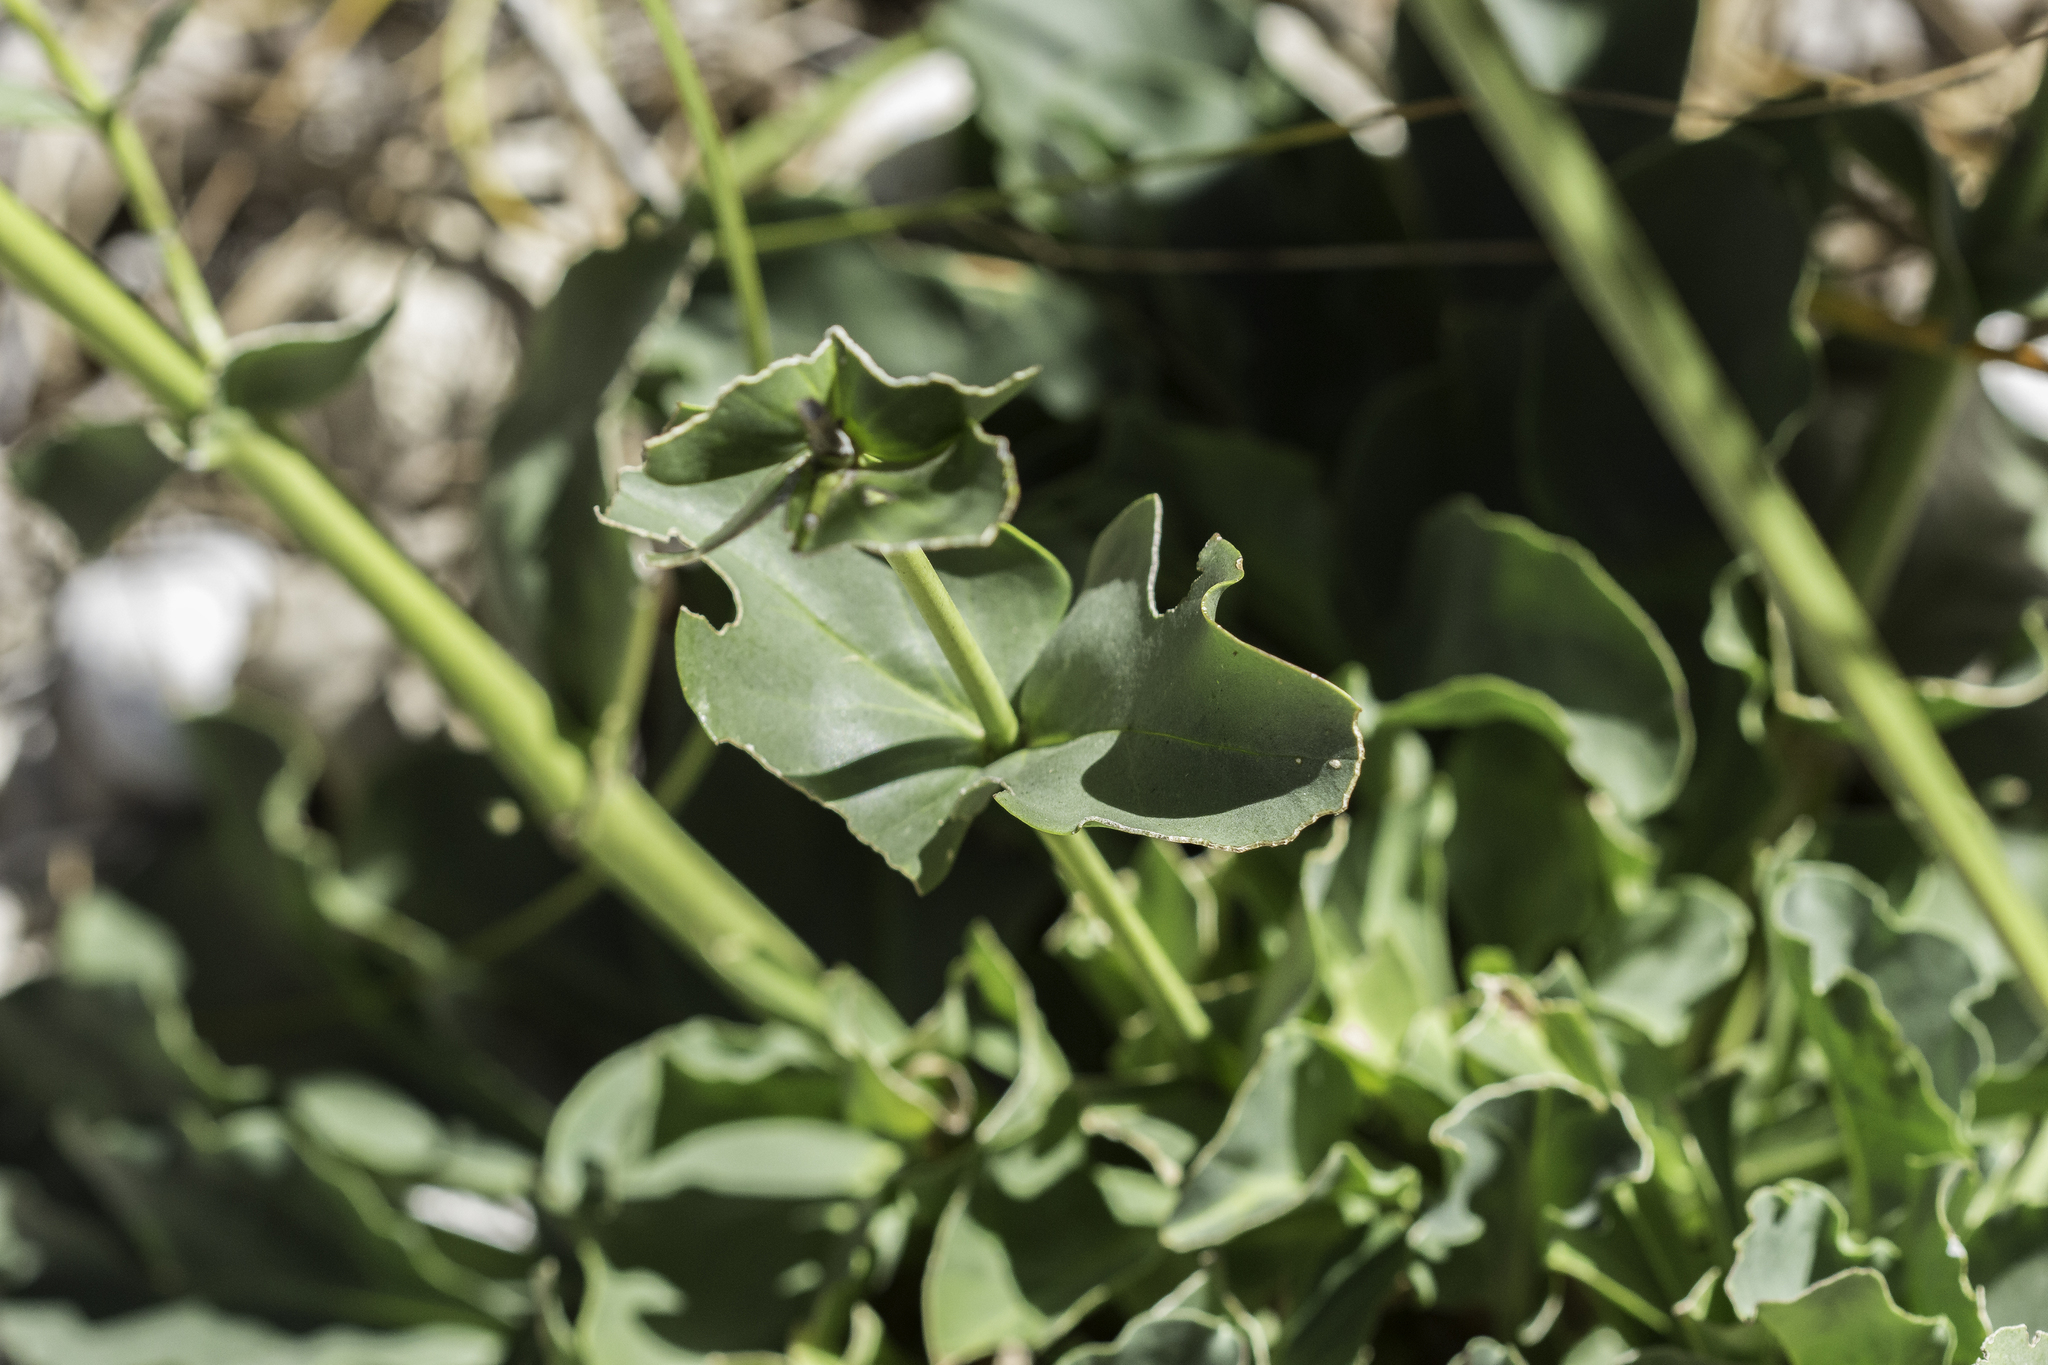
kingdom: Plantae
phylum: Tracheophyta
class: Magnoliopsida
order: Lamiales
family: Plantaginaceae
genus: Penstemon
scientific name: Penstemon cardinalis
